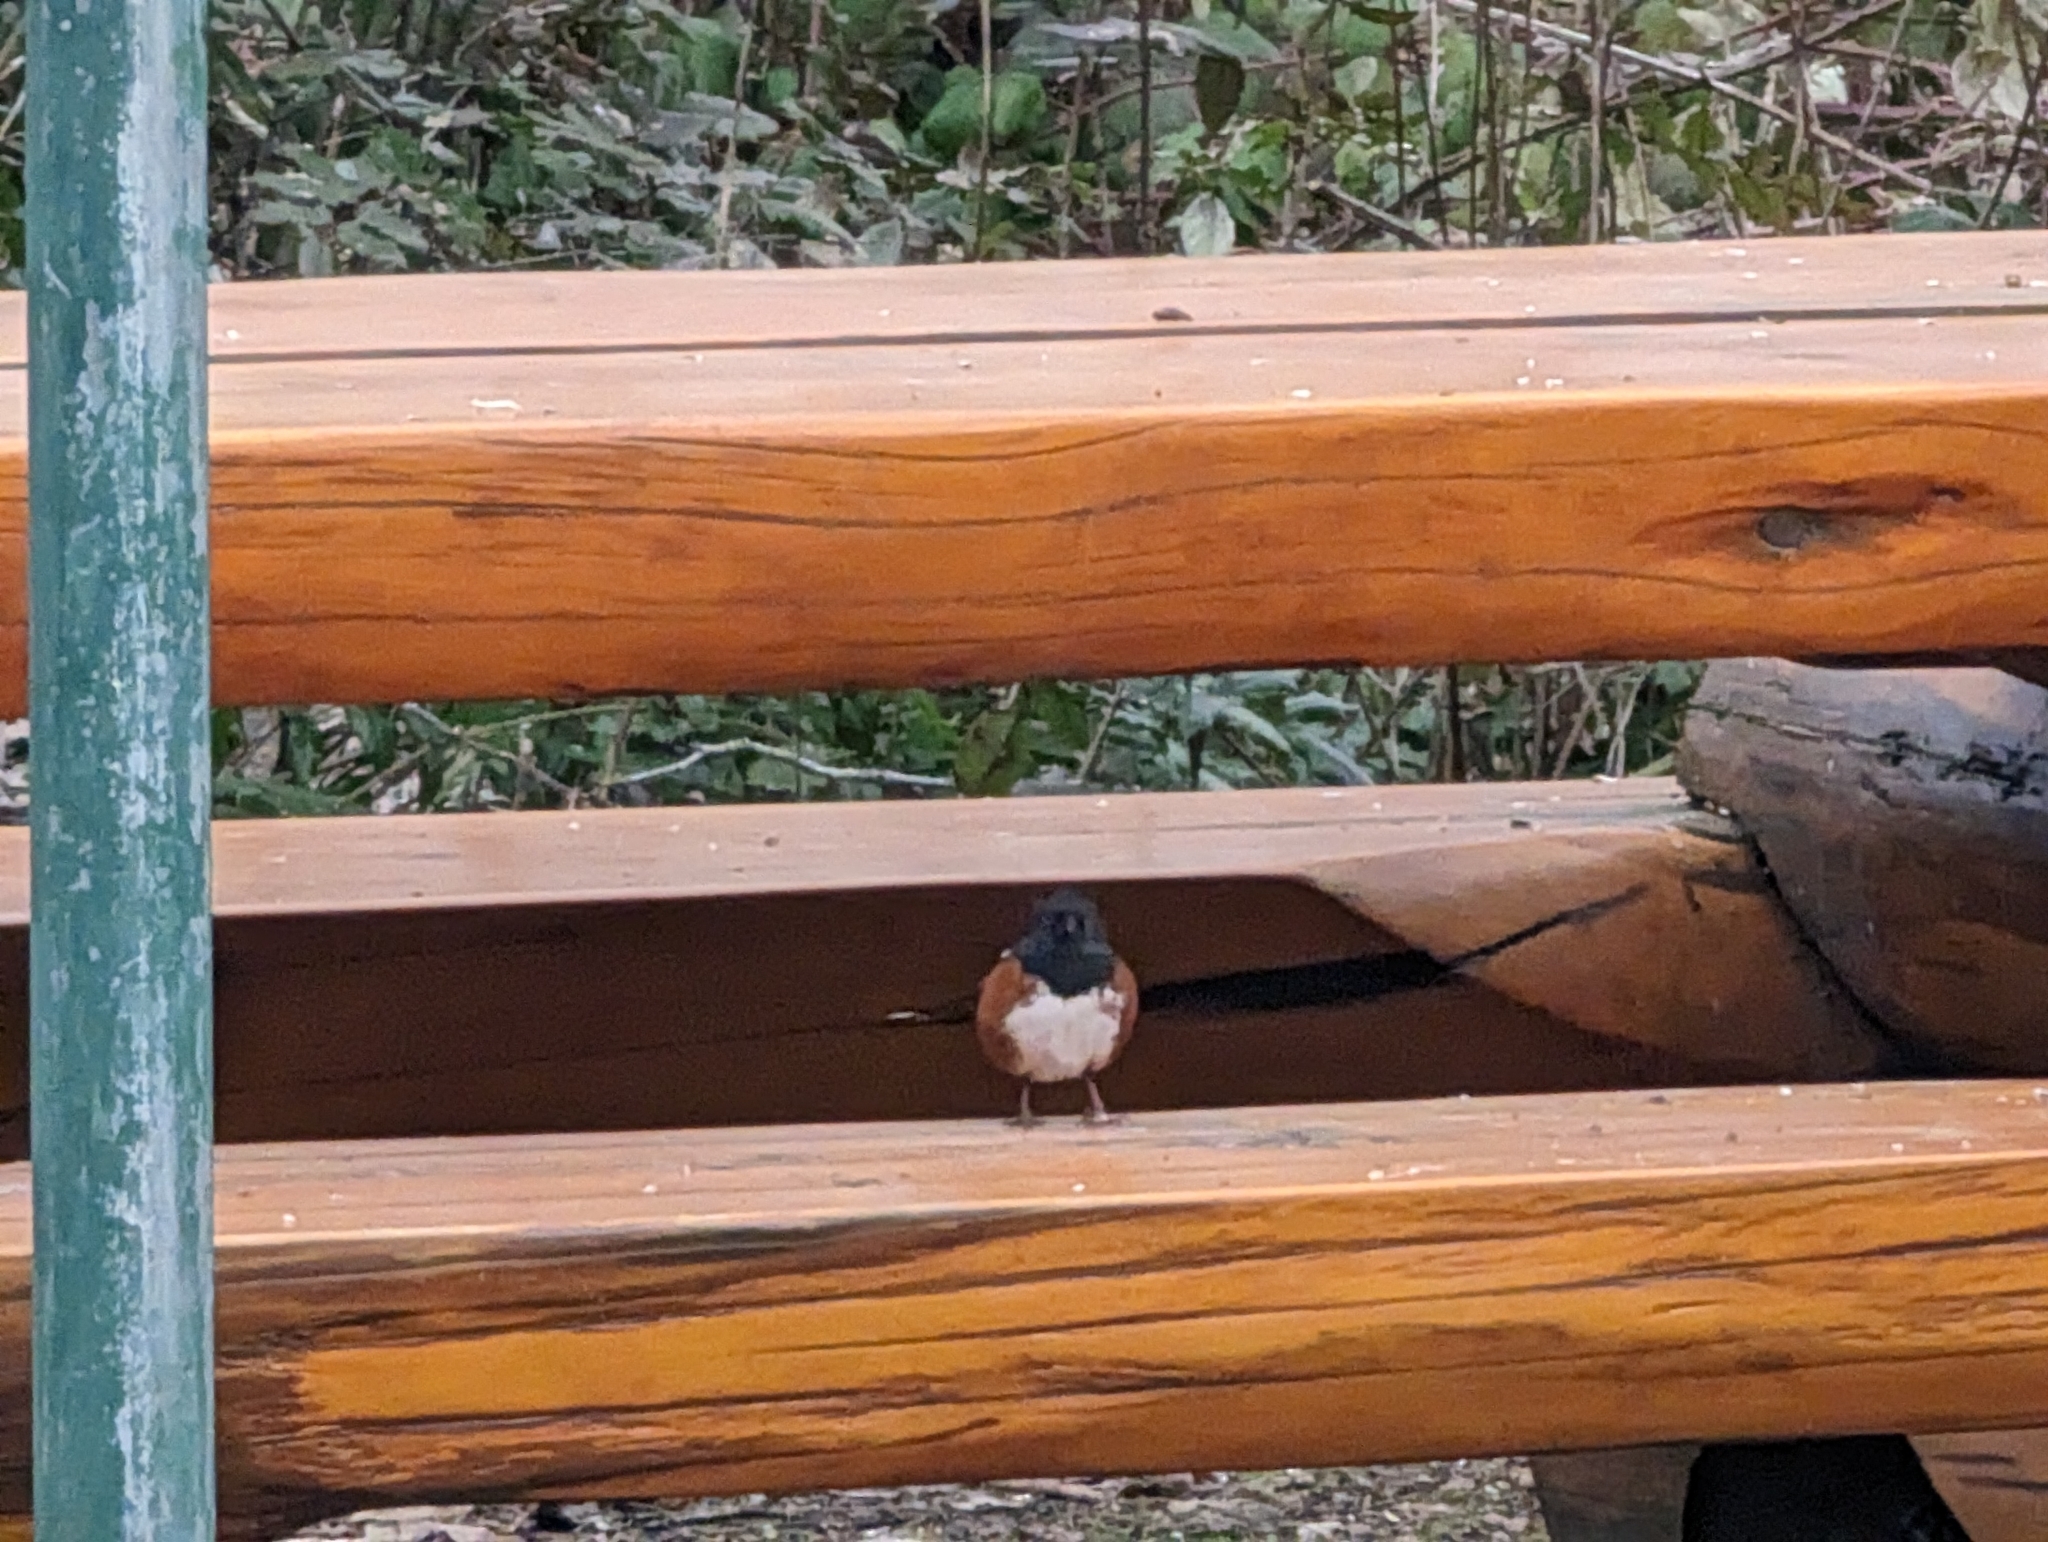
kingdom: Animalia
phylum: Chordata
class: Aves
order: Passeriformes
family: Passerellidae
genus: Pipilo
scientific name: Pipilo maculatus
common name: Spotted towhee
